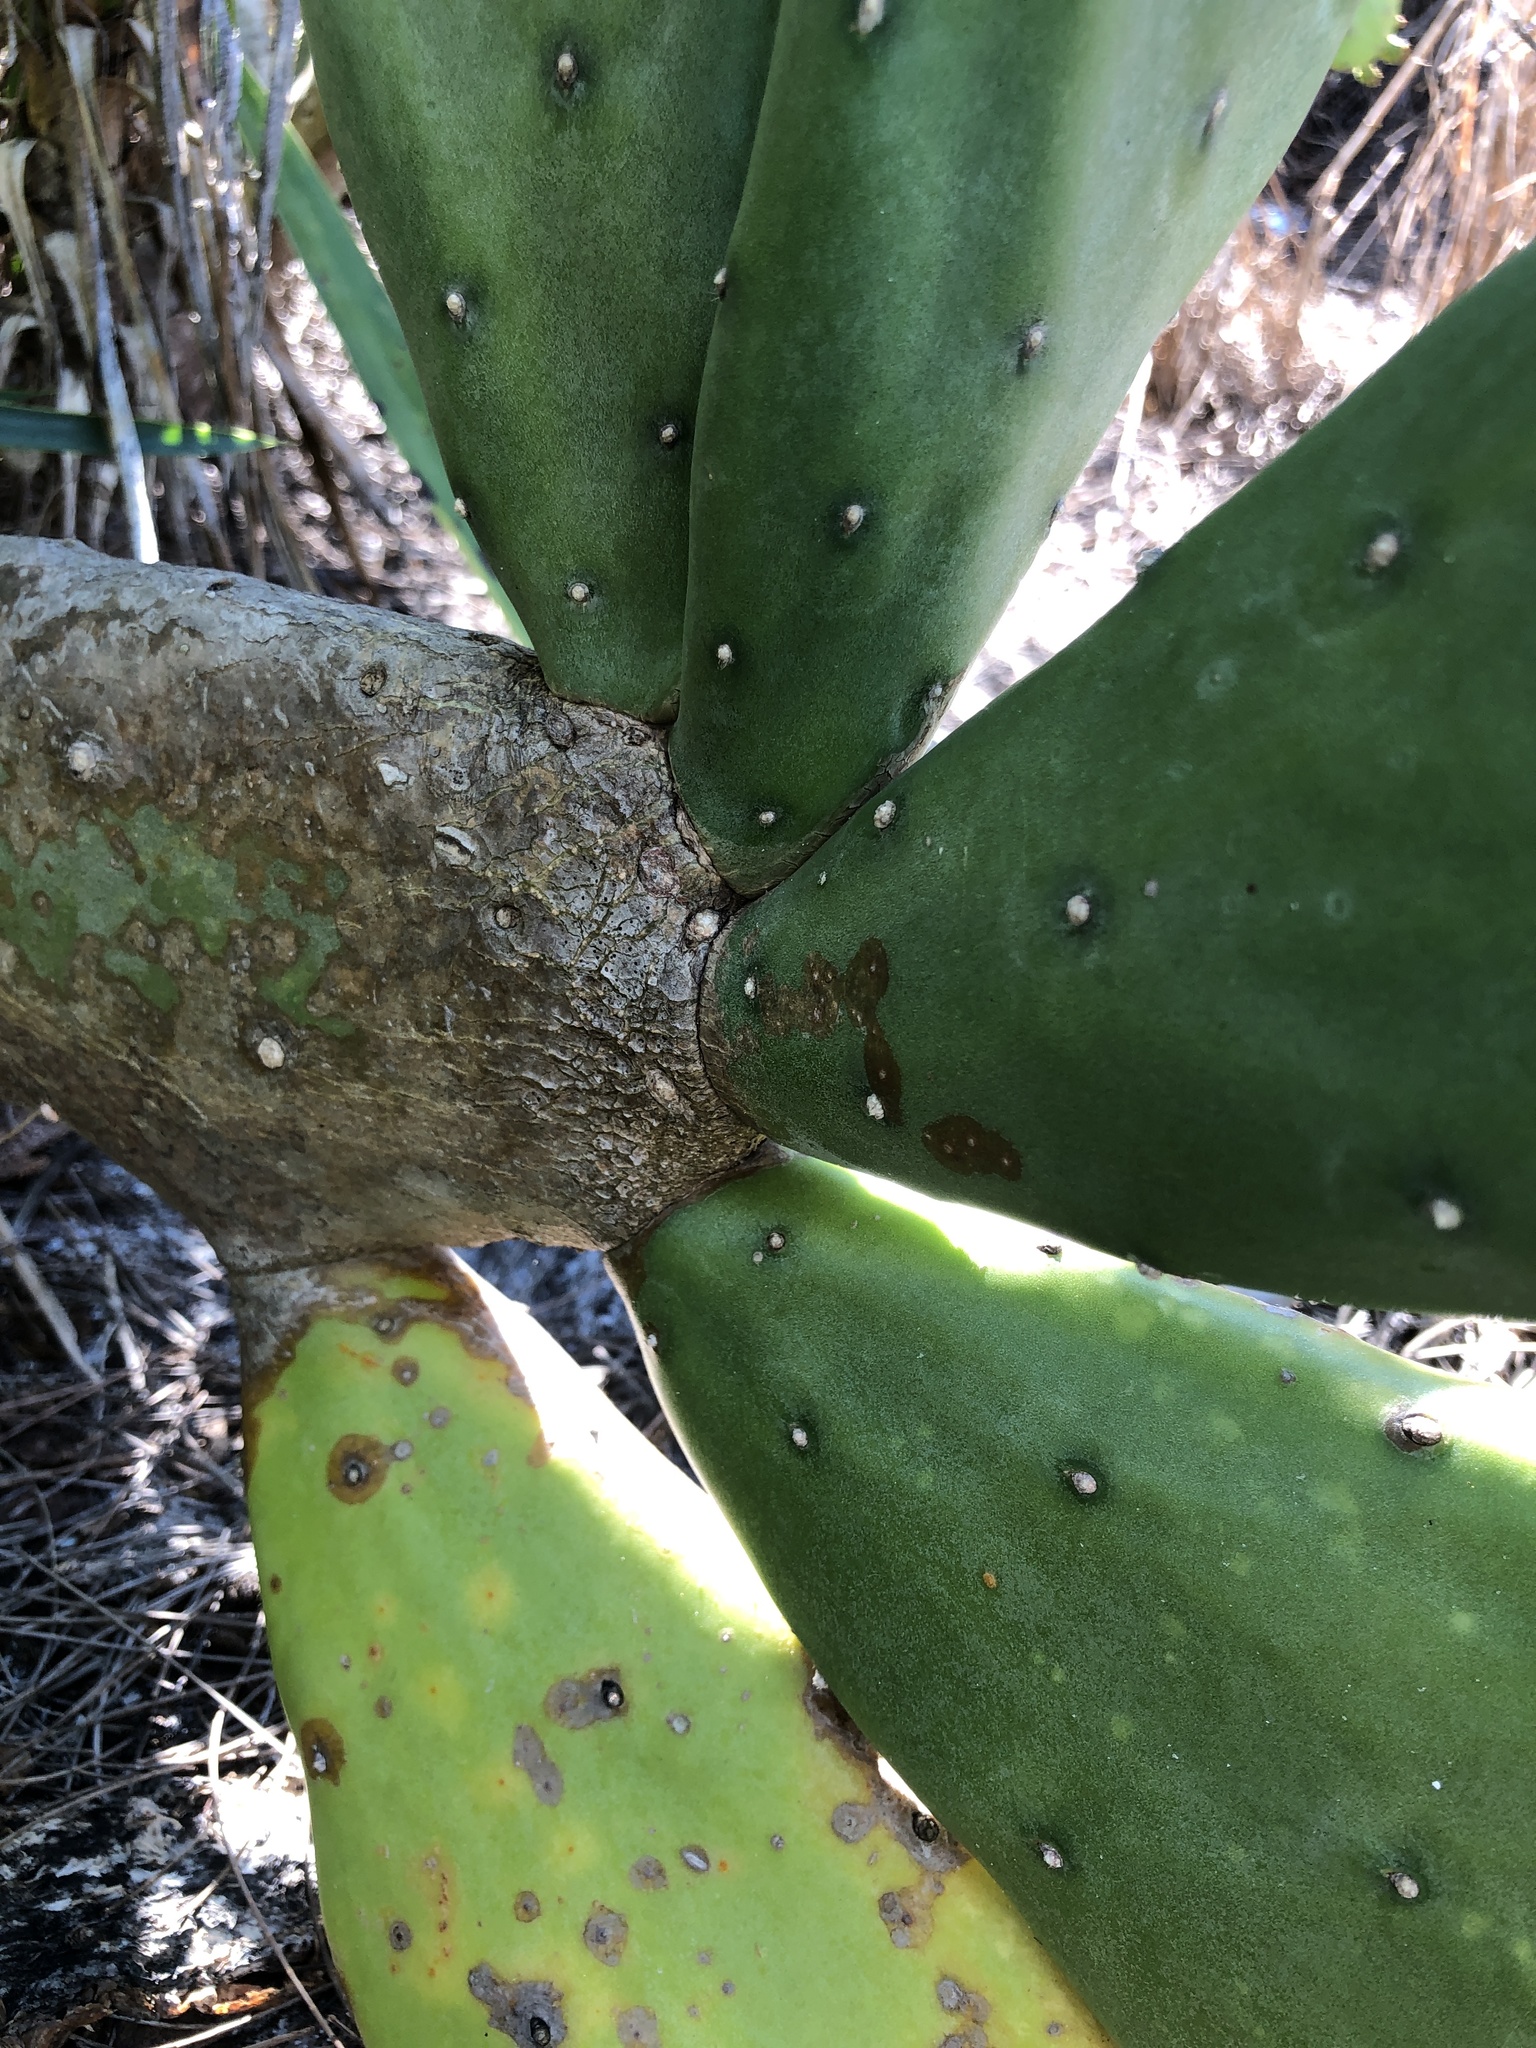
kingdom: Plantae
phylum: Tracheophyta
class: Magnoliopsida
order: Caryophyllales
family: Cactaceae
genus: Opuntia
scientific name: Opuntia cochenillifera
